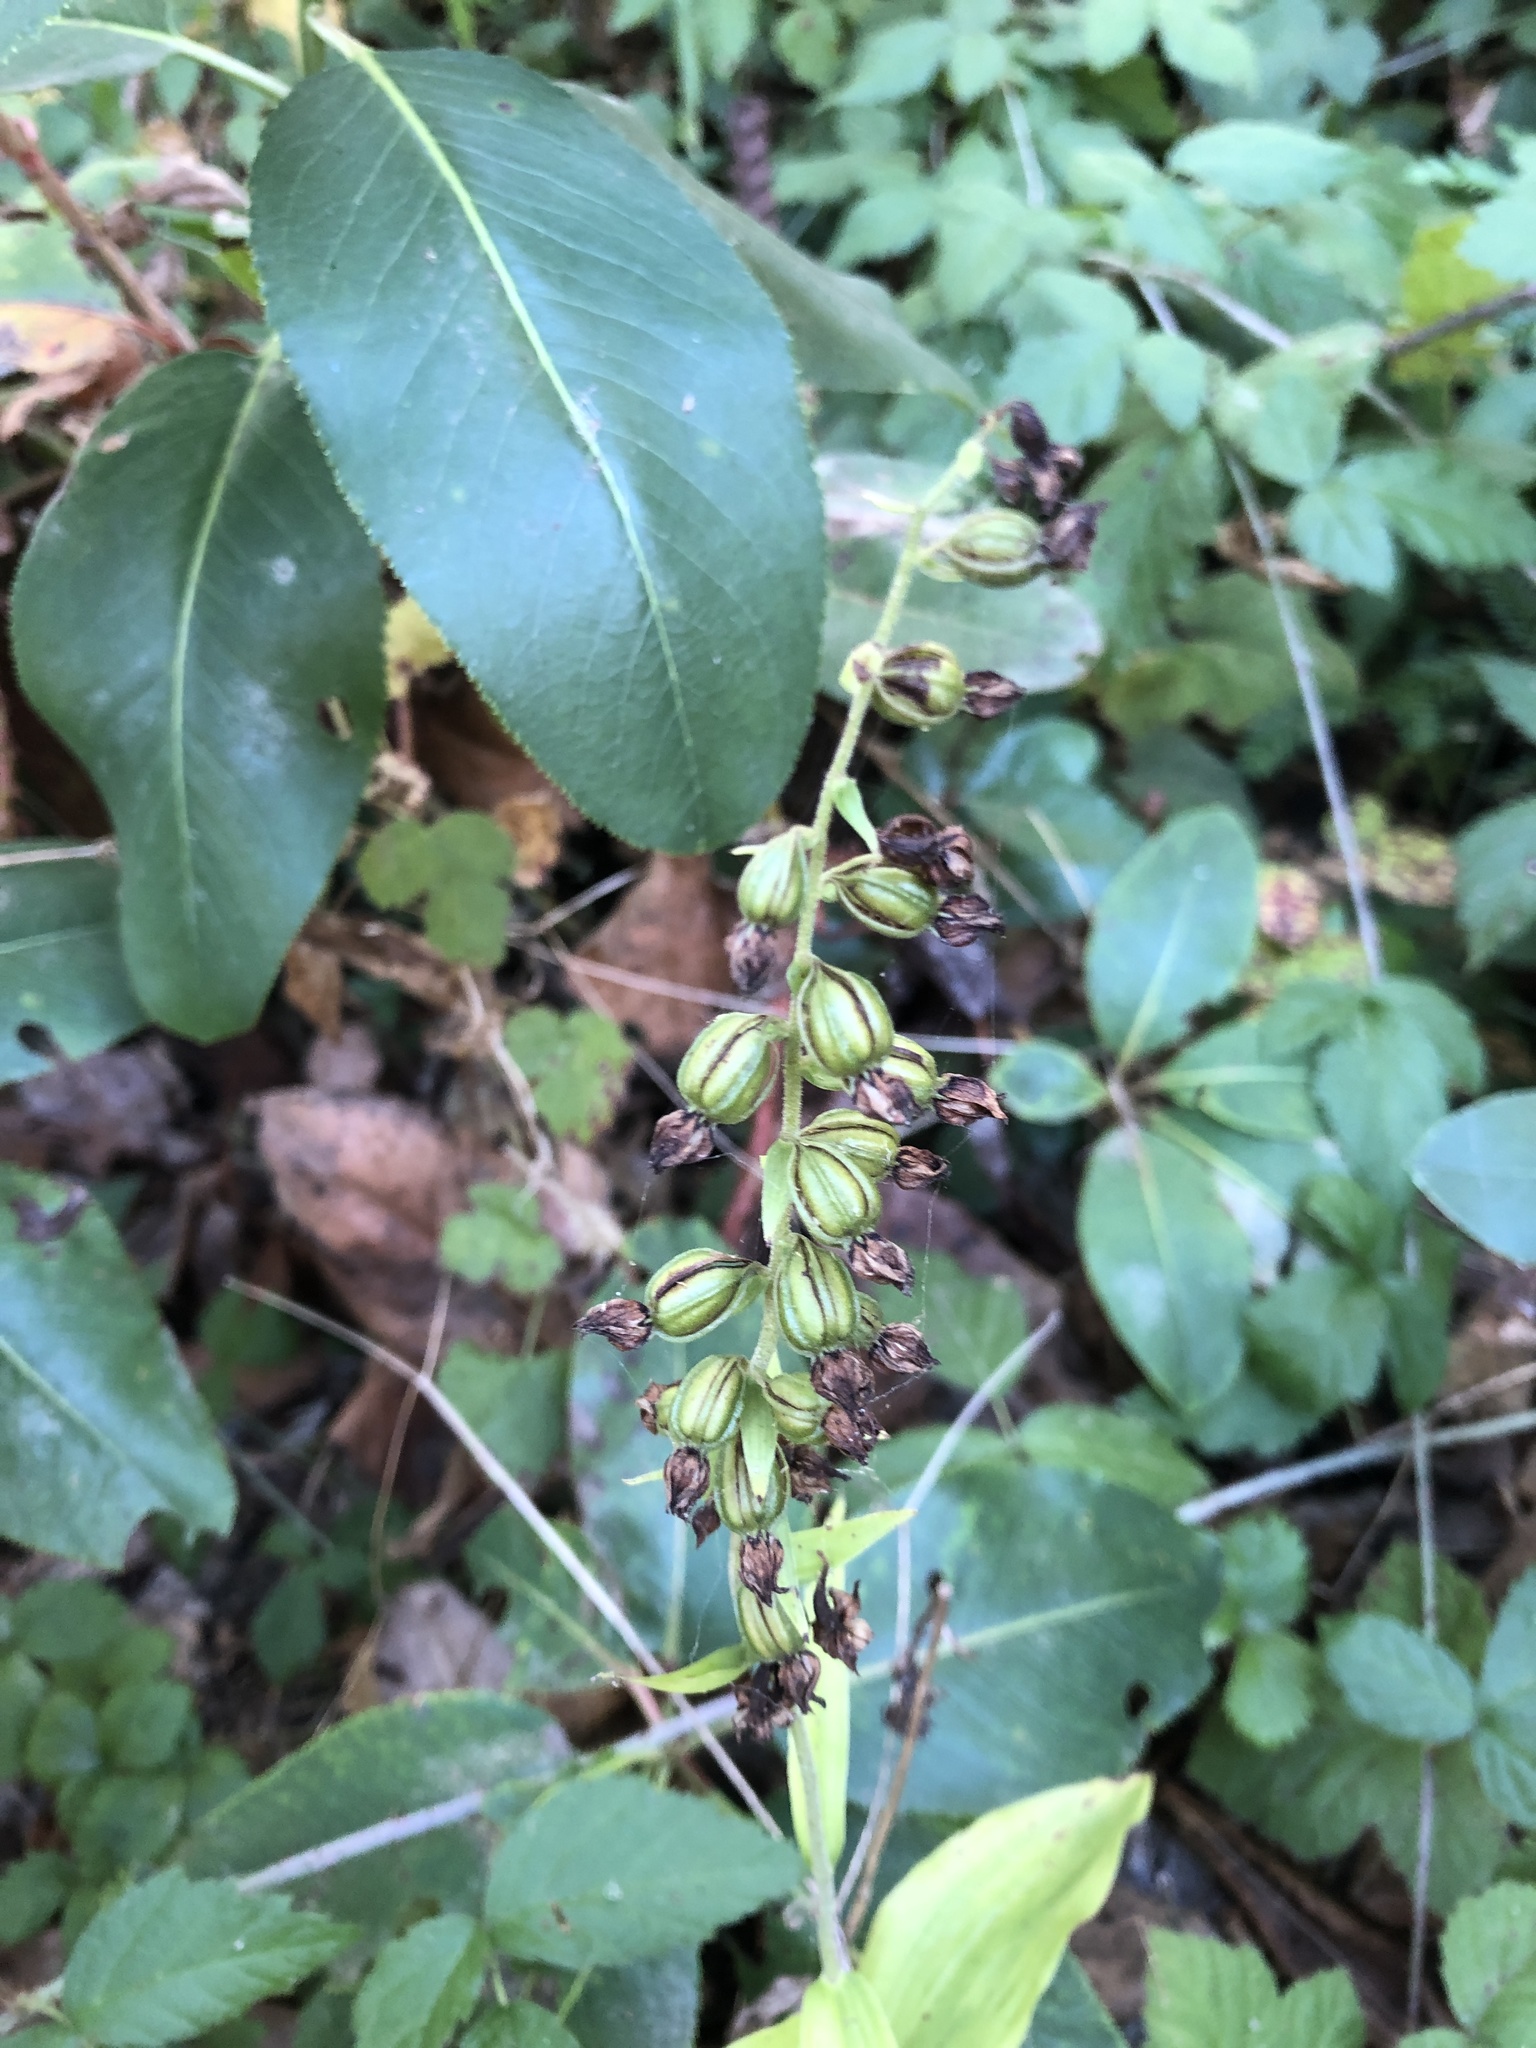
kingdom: Plantae
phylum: Tracheophyta
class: Liliopsida
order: Asparagales
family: Orchidaceae
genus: Epipactis
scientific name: Epipactis helleborine
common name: Broad-leaved helleborine
